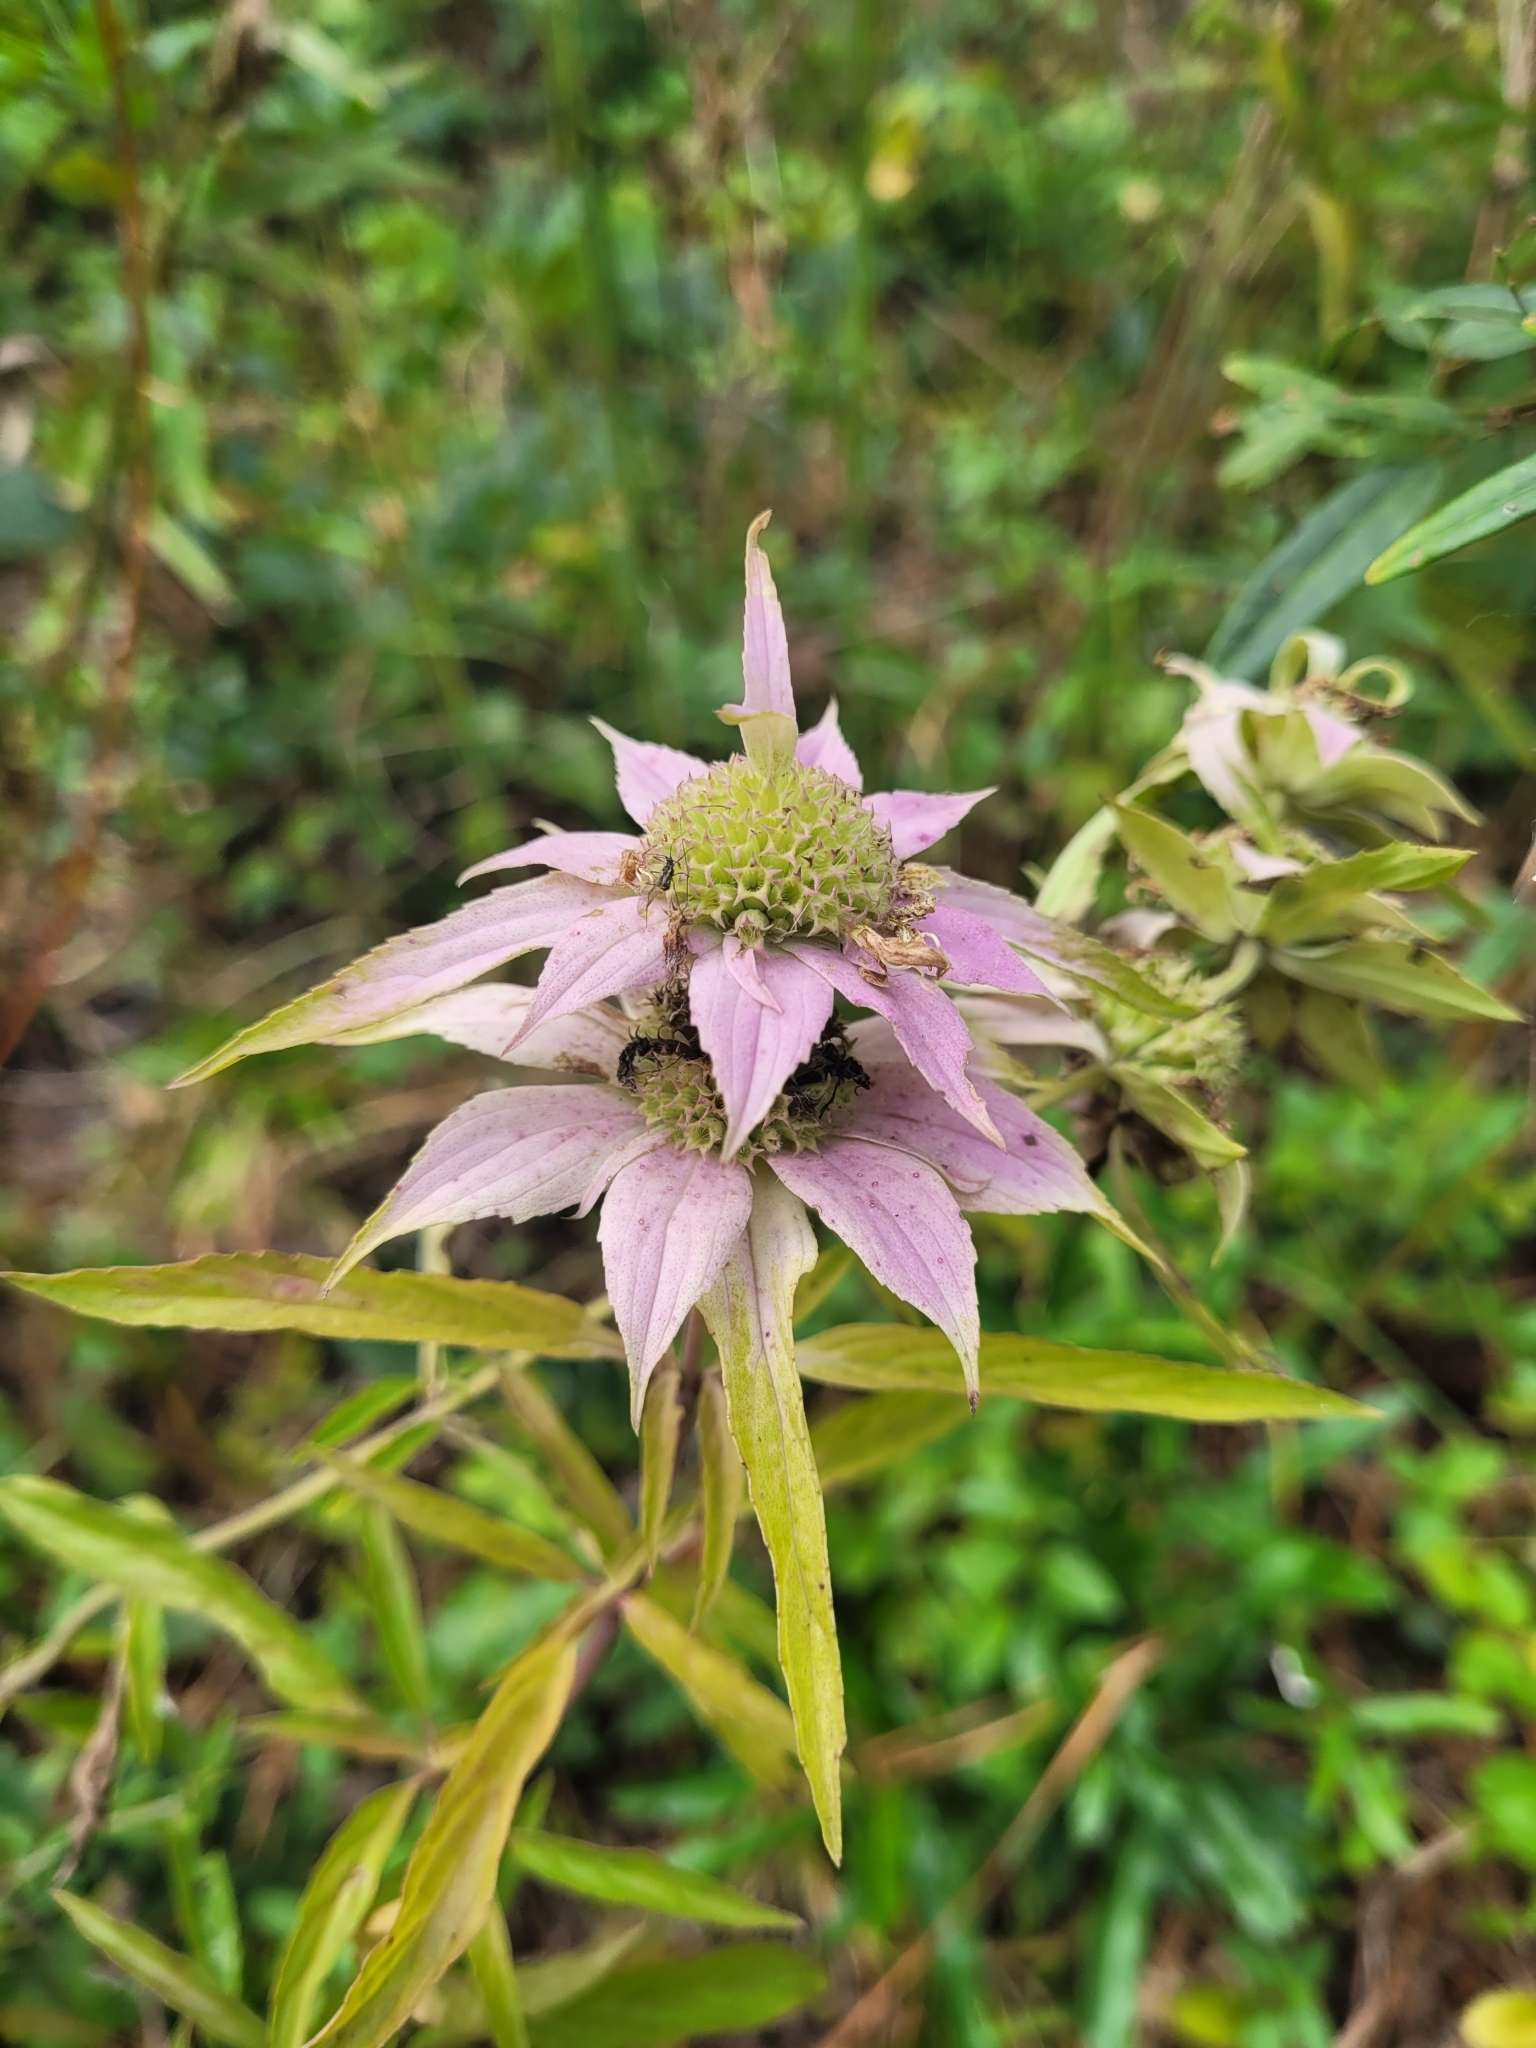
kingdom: Plantae
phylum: Tracheophyta
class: Magnoliopsida
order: Lamiales
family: Lamiaceae
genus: Monarda
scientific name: Monarda punctata
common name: Dotted monarda
